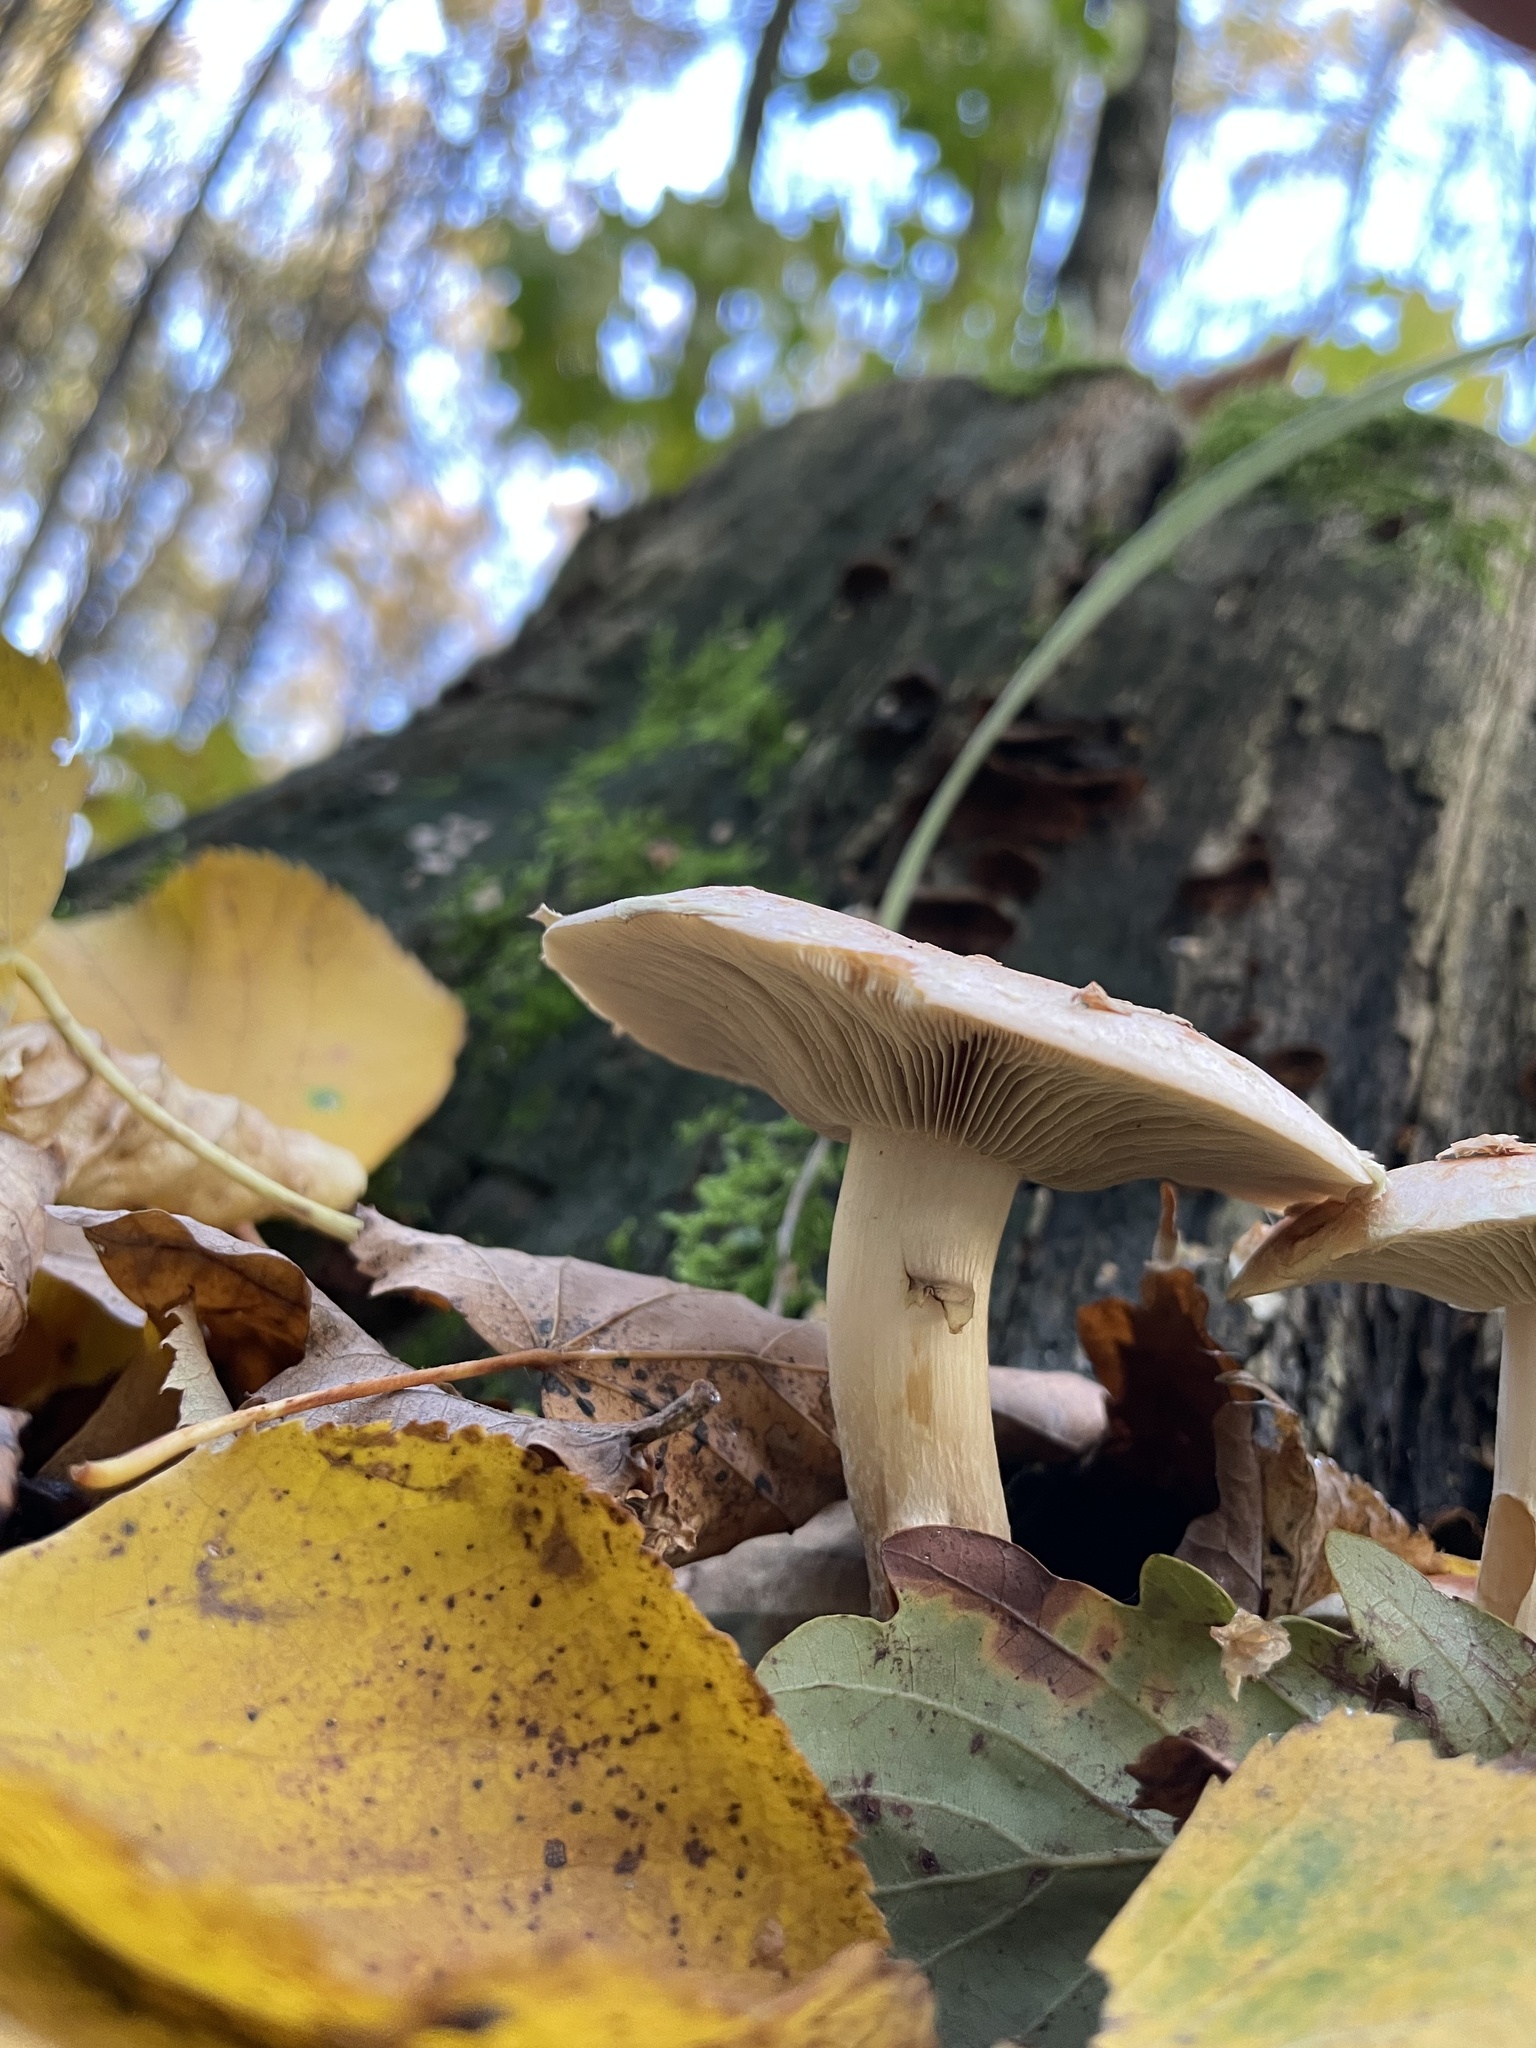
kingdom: Fungi
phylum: Basidiomycota
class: Agaricomycetes
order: Agaricales
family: Strophariaceae
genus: Hypholoma
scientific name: Hypholoma lateritium
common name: Brick caps
